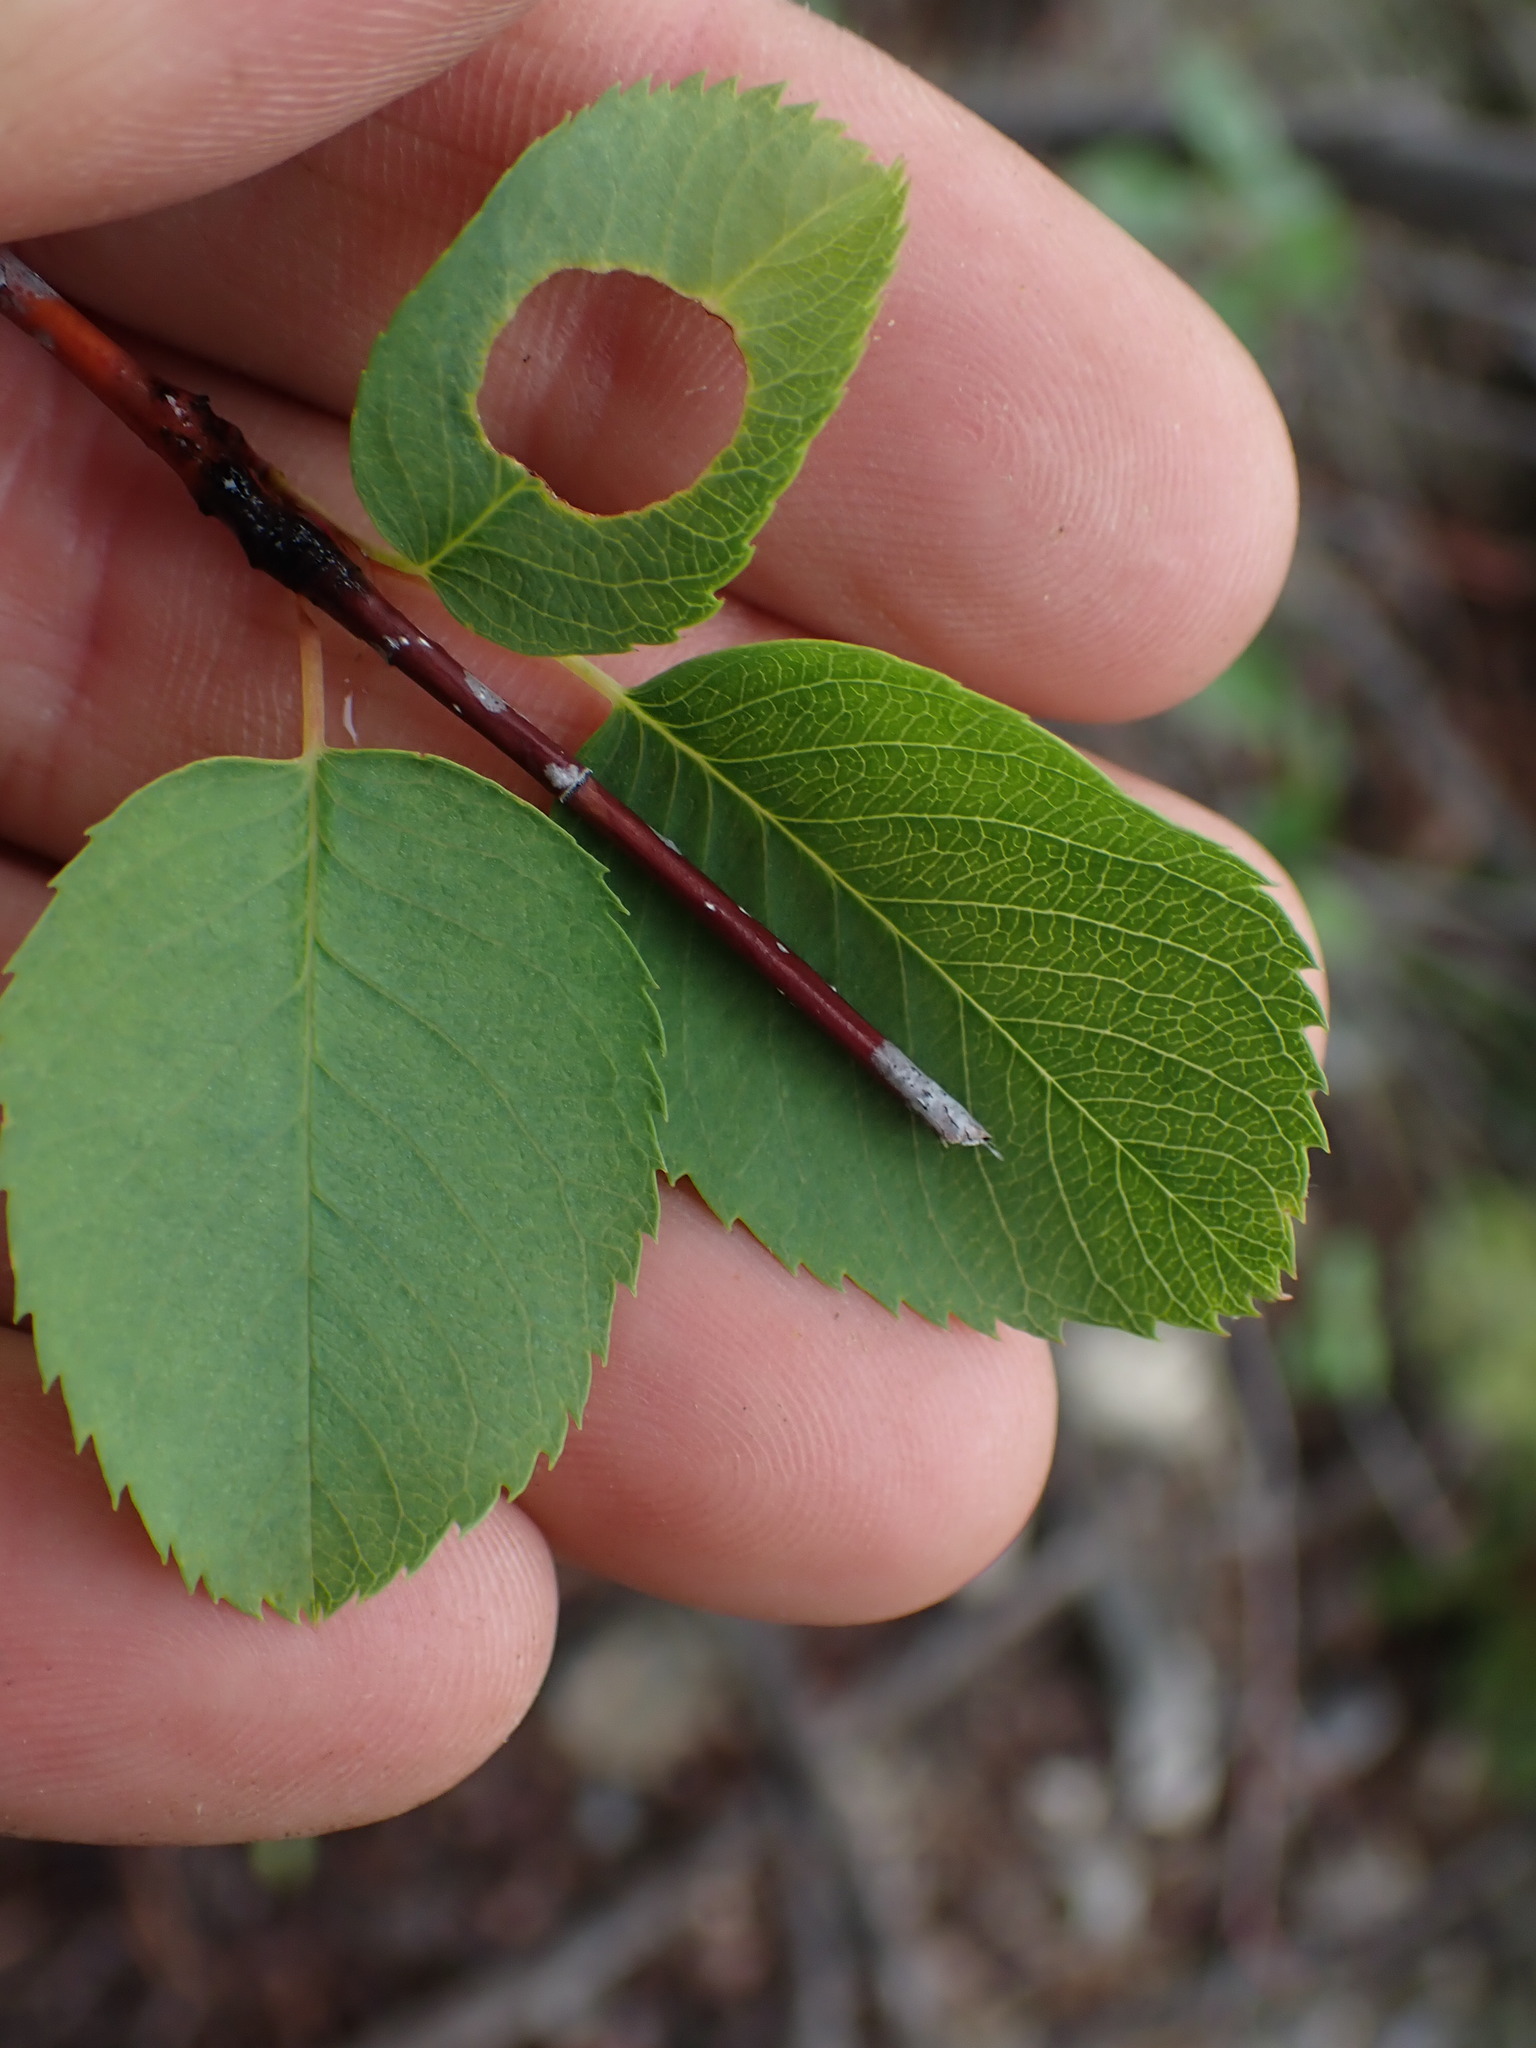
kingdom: Plantae
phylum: Tracheophyta
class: Magnoliopsida
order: Rosales
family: Rosaceae
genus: Amelanchier
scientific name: Amelanchier alnifolia
